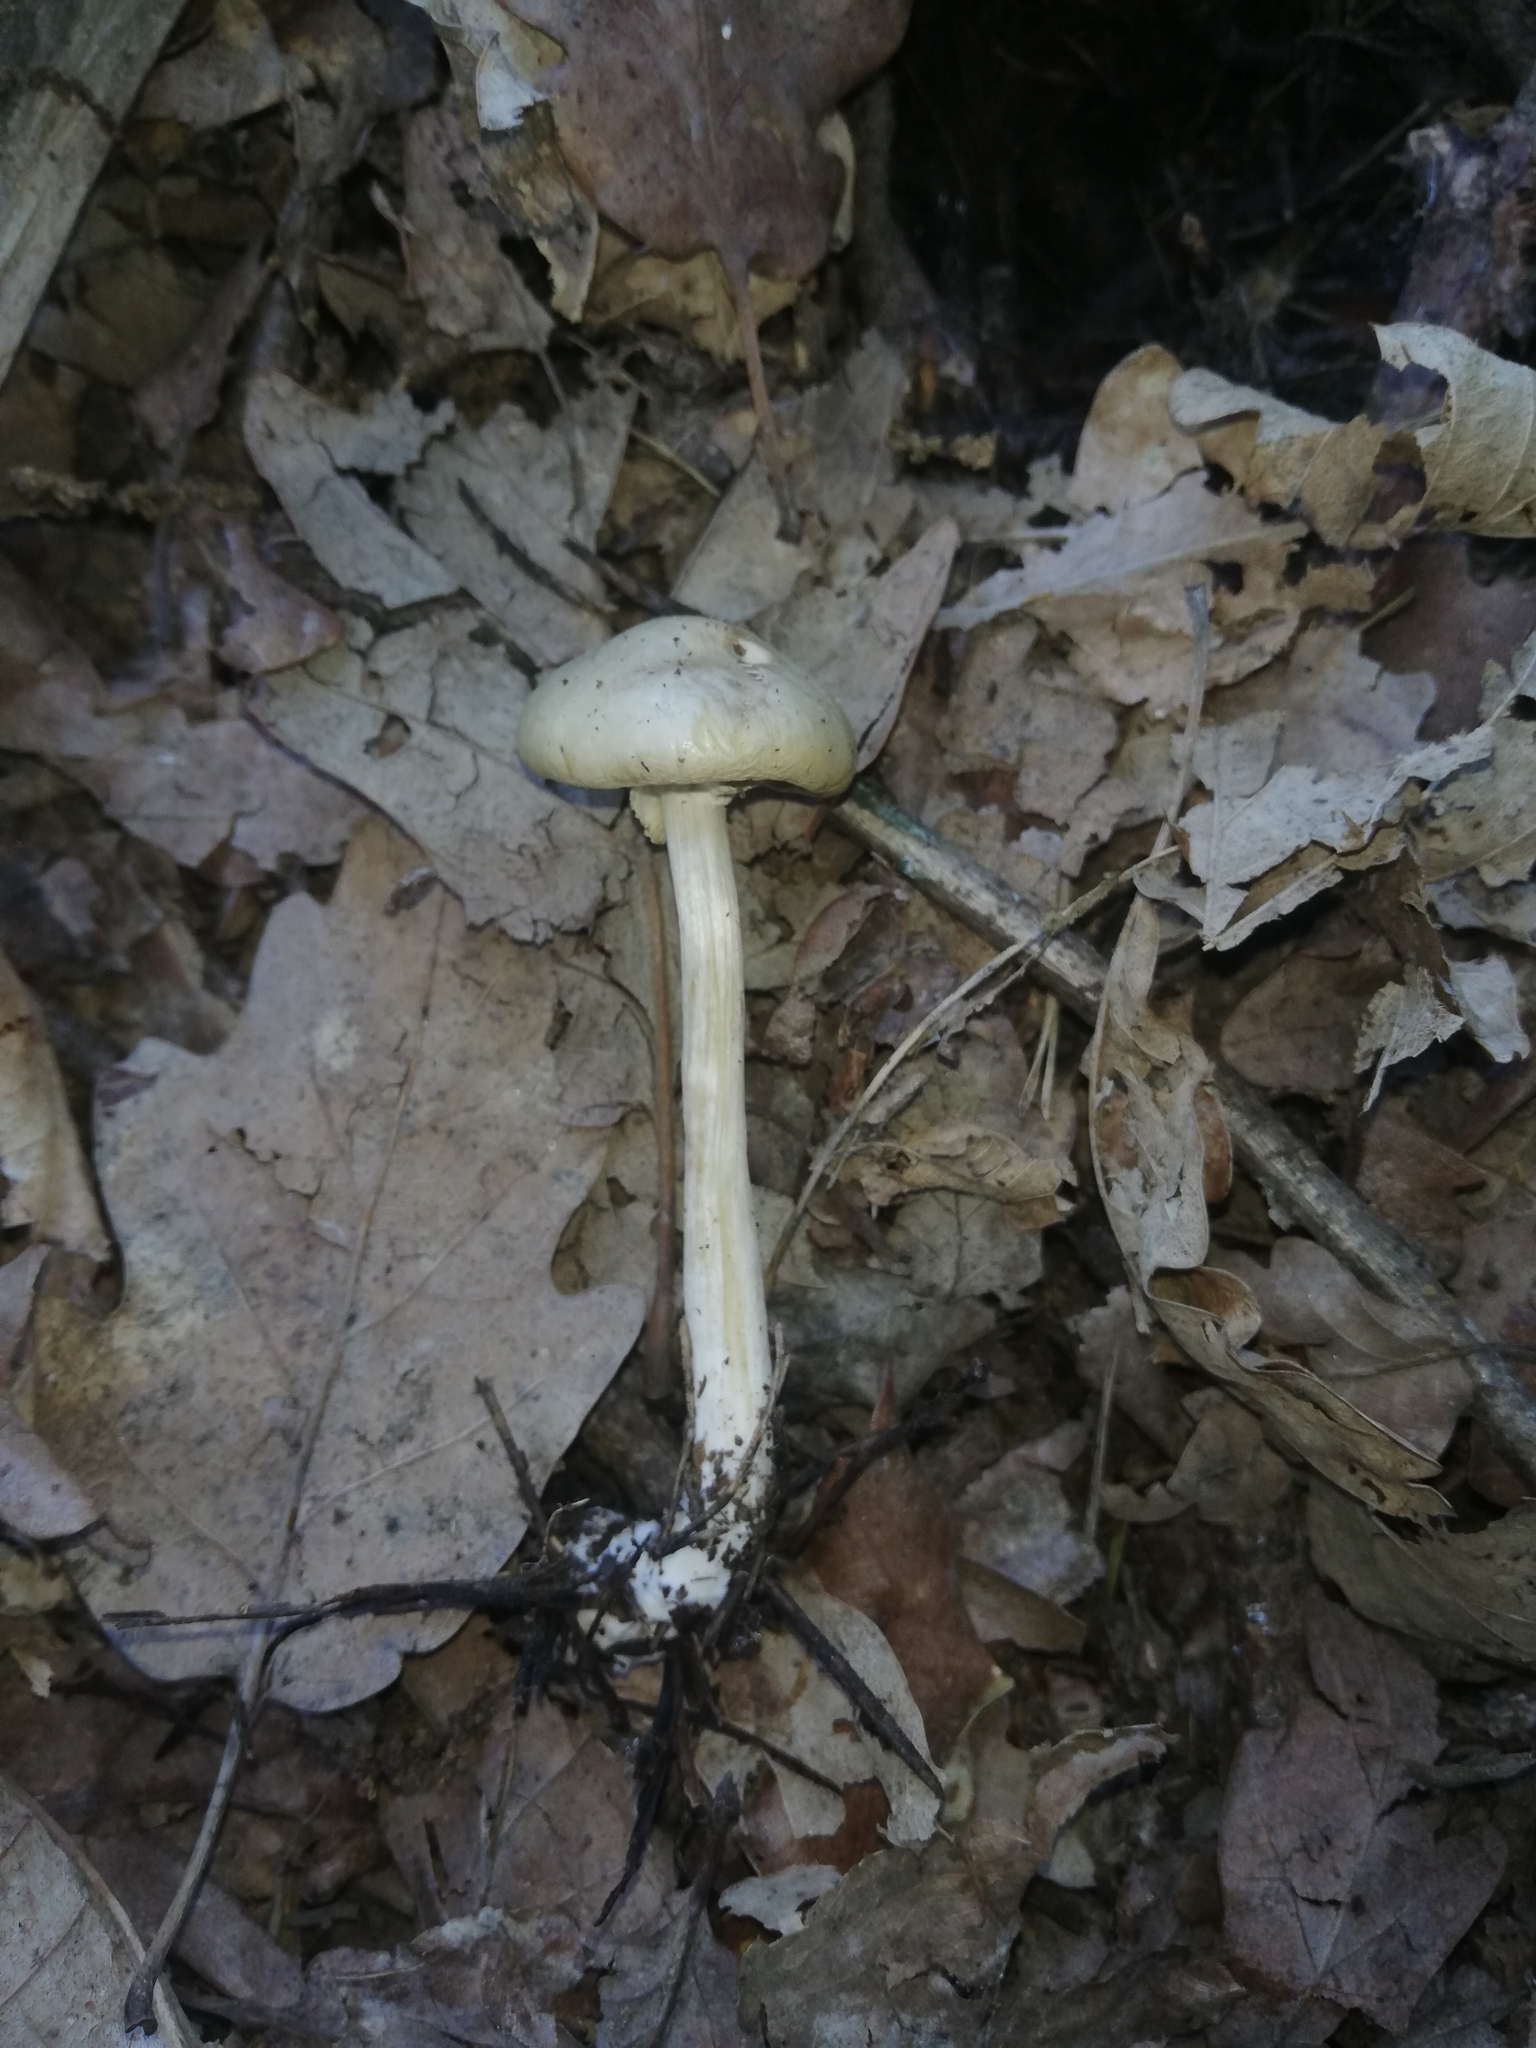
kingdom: Fungi
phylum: Basidiomycota
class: Agaricomycetes
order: Agaricales
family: Strophariaceae
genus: Agrocybe
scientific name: Agrocybe praecox
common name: Spring fieldcap
